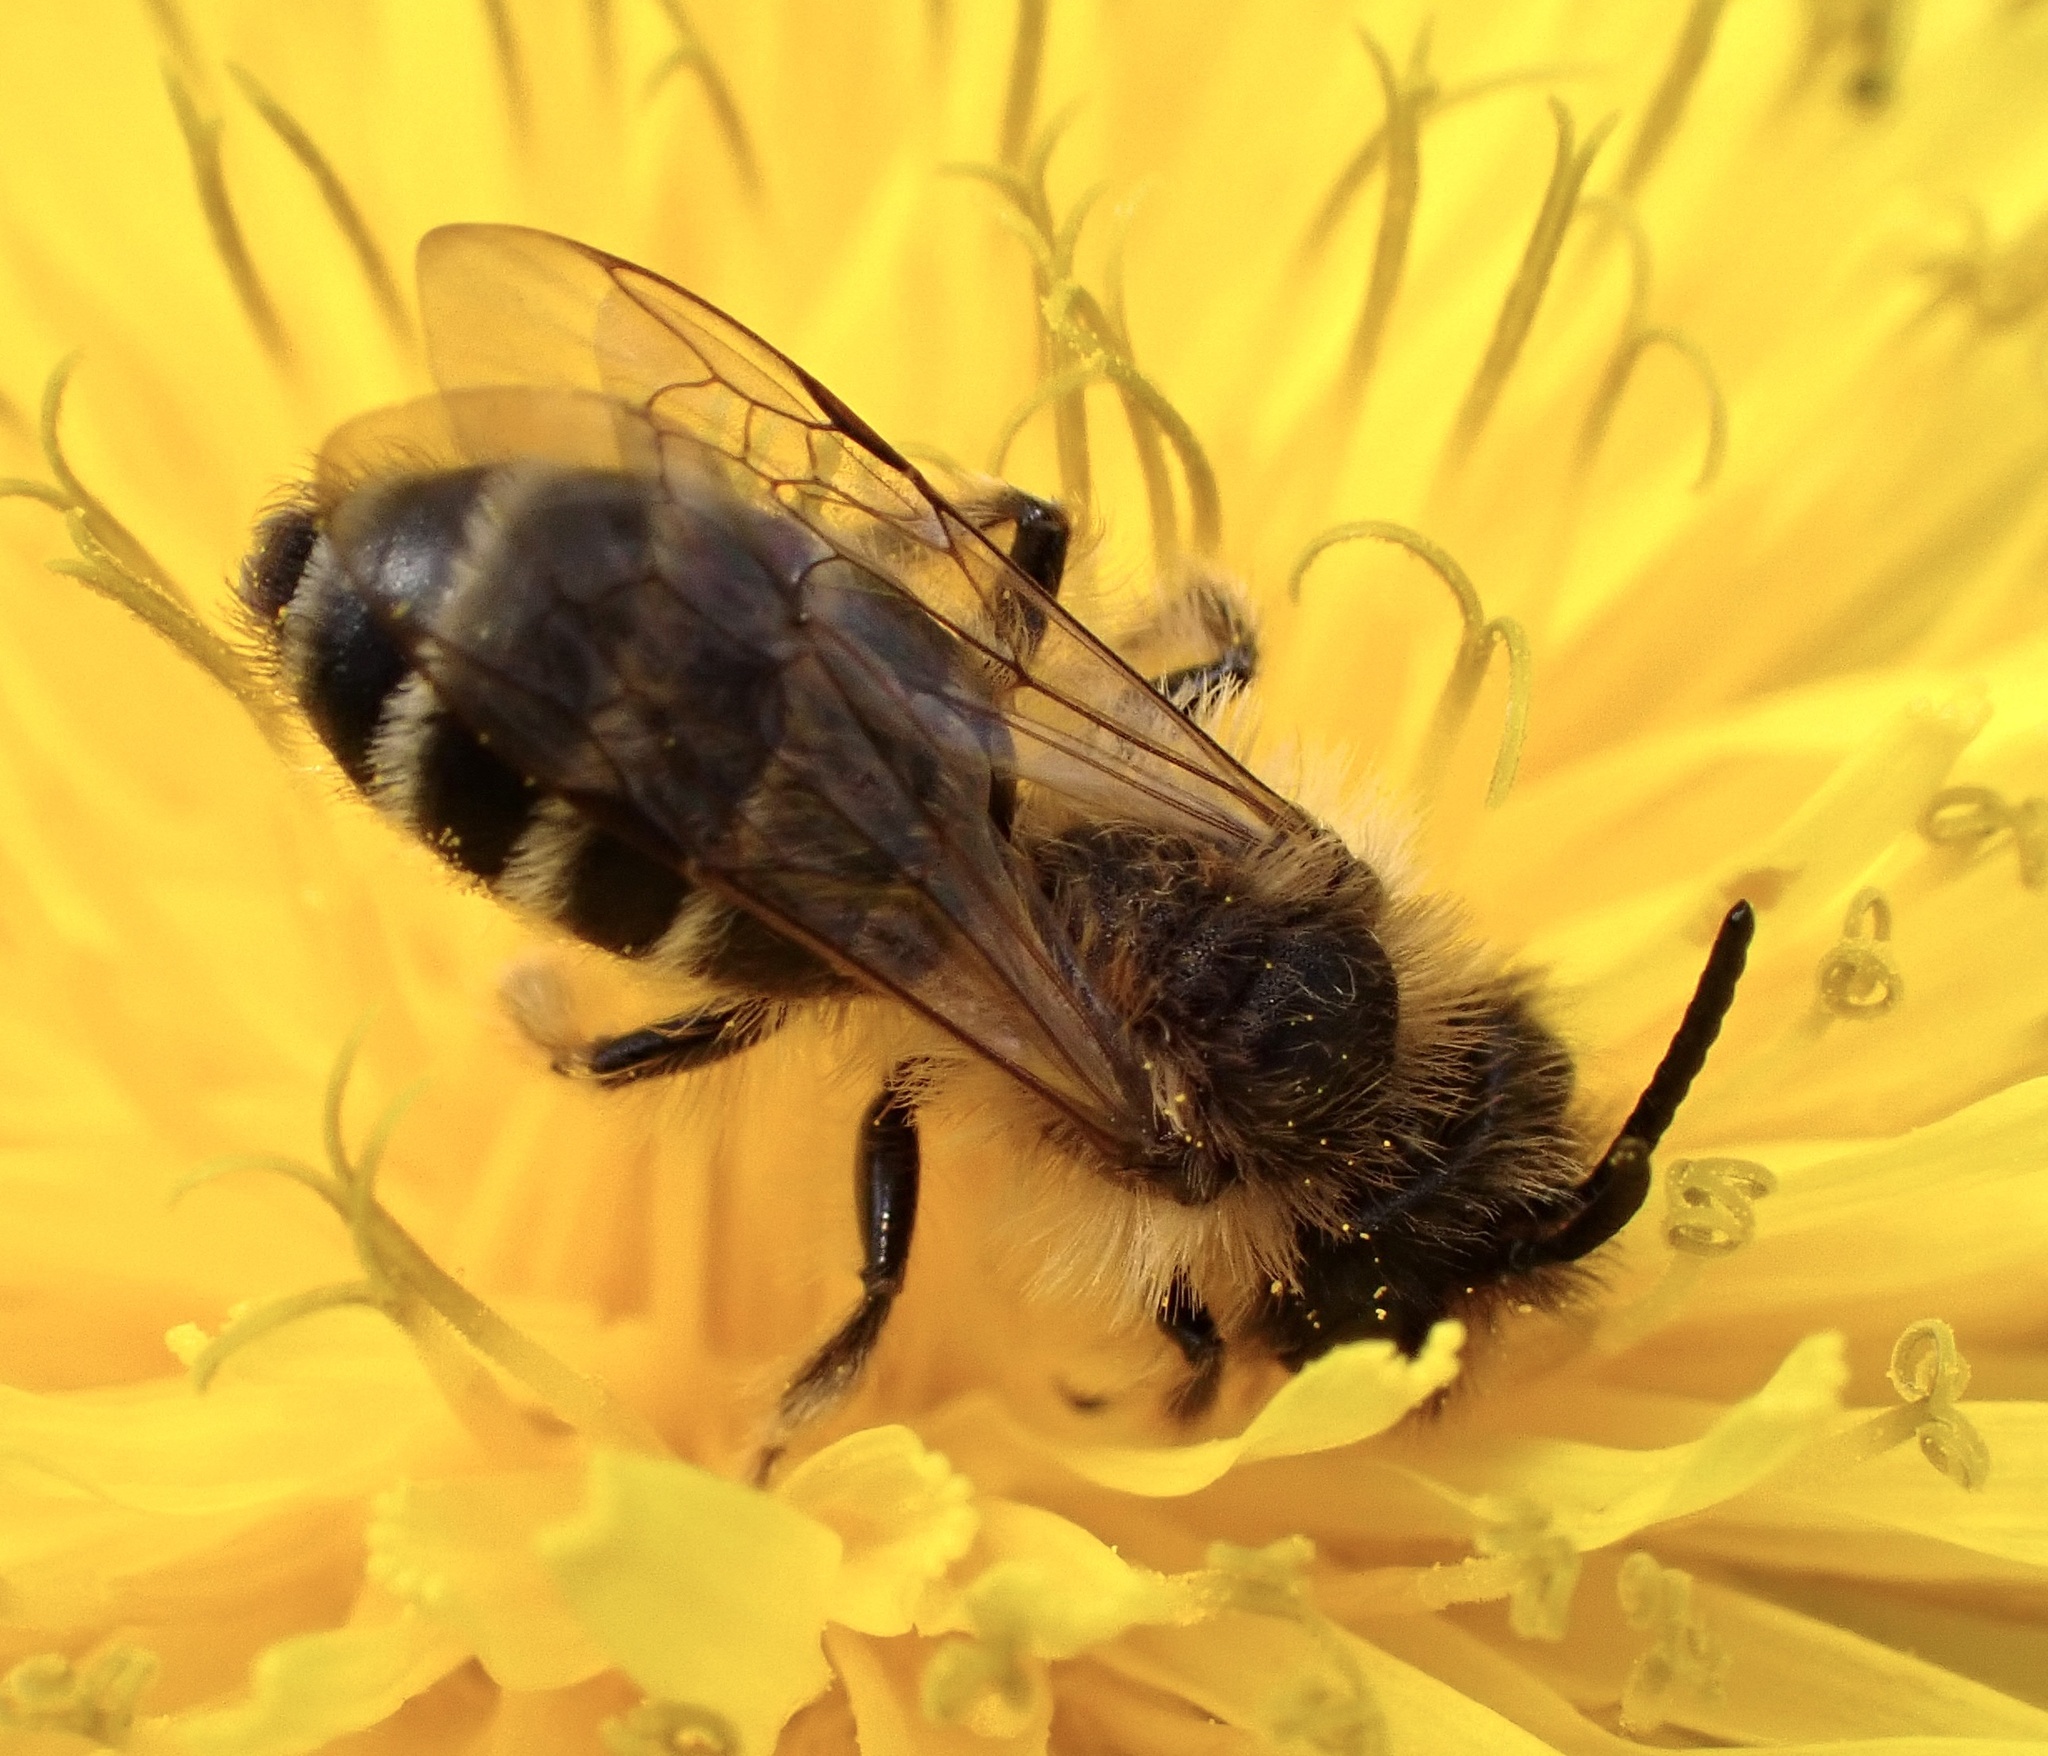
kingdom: Animalia
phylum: Arthropoda
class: Insecta
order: Hymenoptera
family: Andrenidae
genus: Andrena
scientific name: Andrena flavipes
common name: Yellow-legged mining bee
